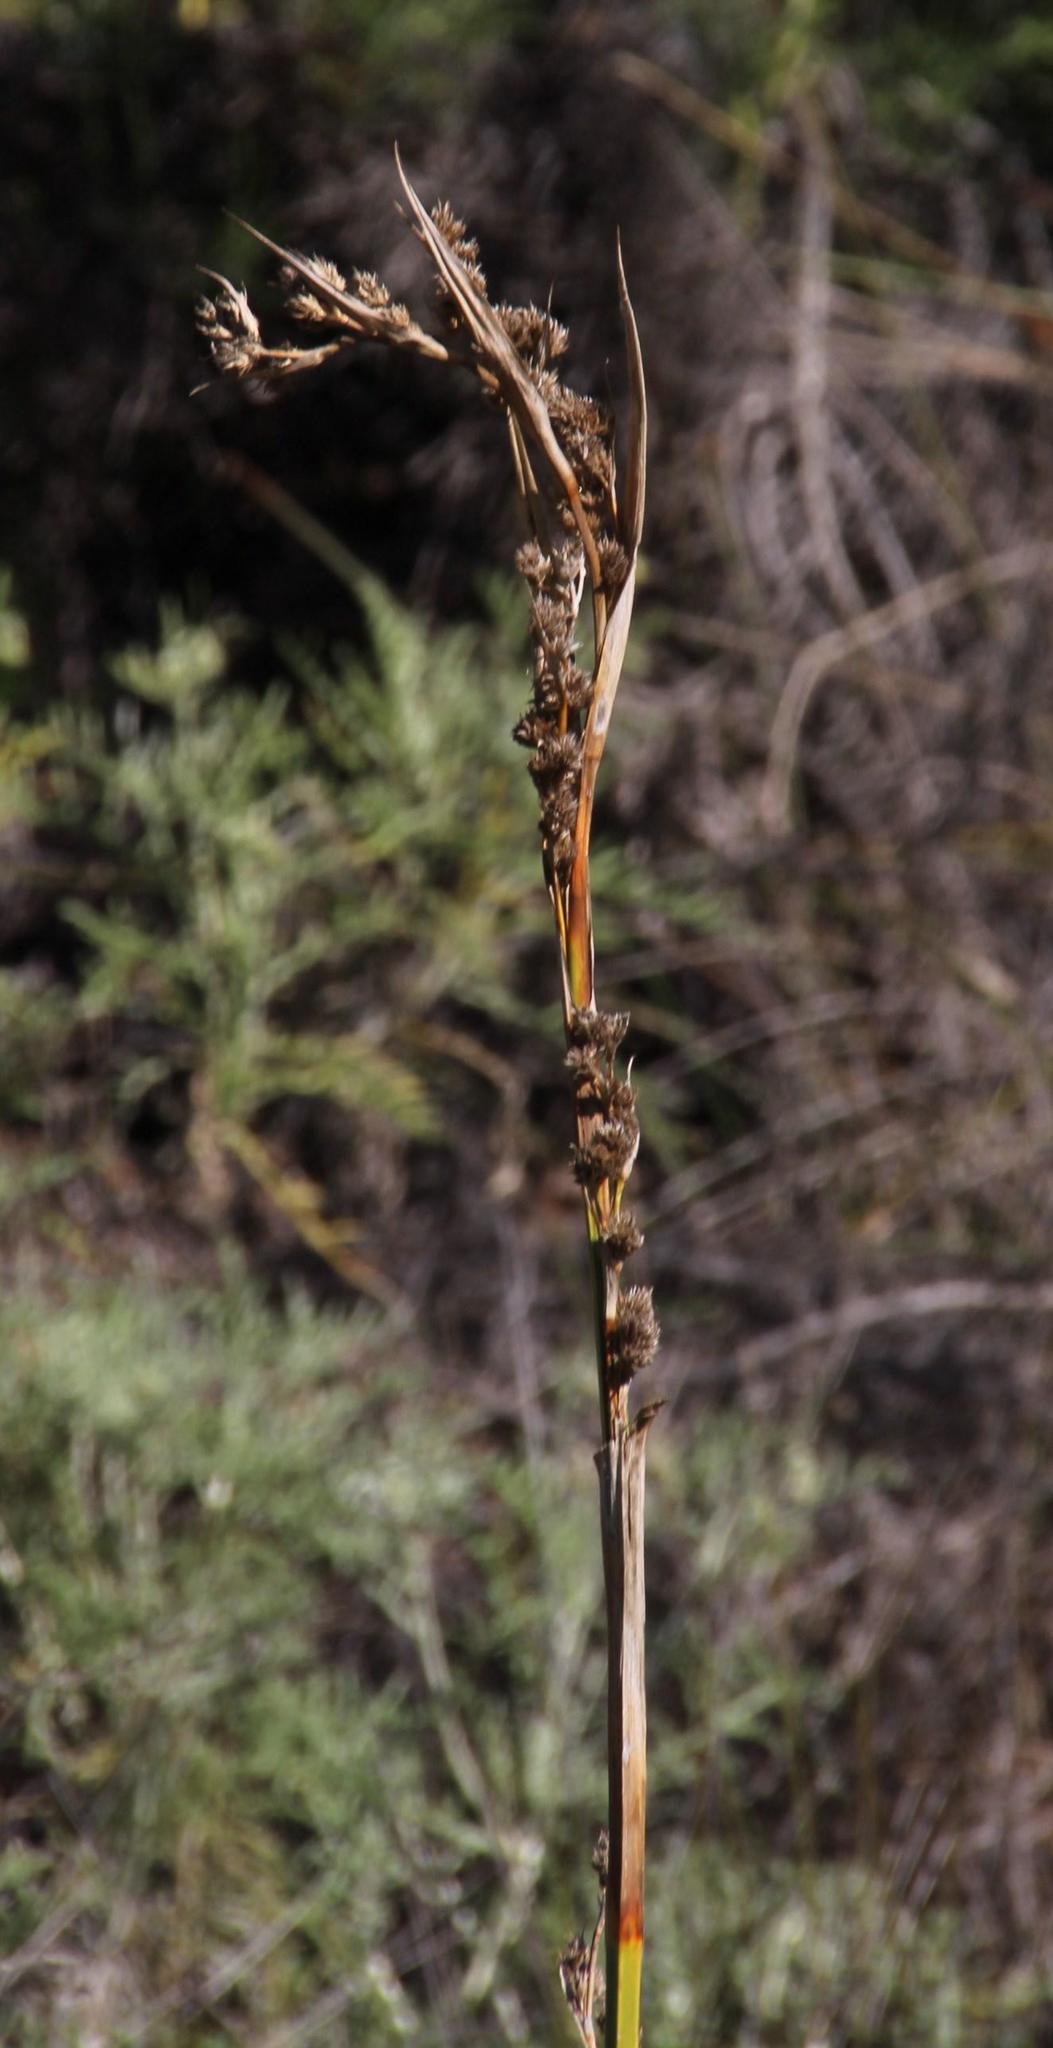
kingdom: Plantae
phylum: Tracheophyta
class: Liliopsida
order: Poales
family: Cyperaceae
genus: Carpha
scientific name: Carpha glomerata
